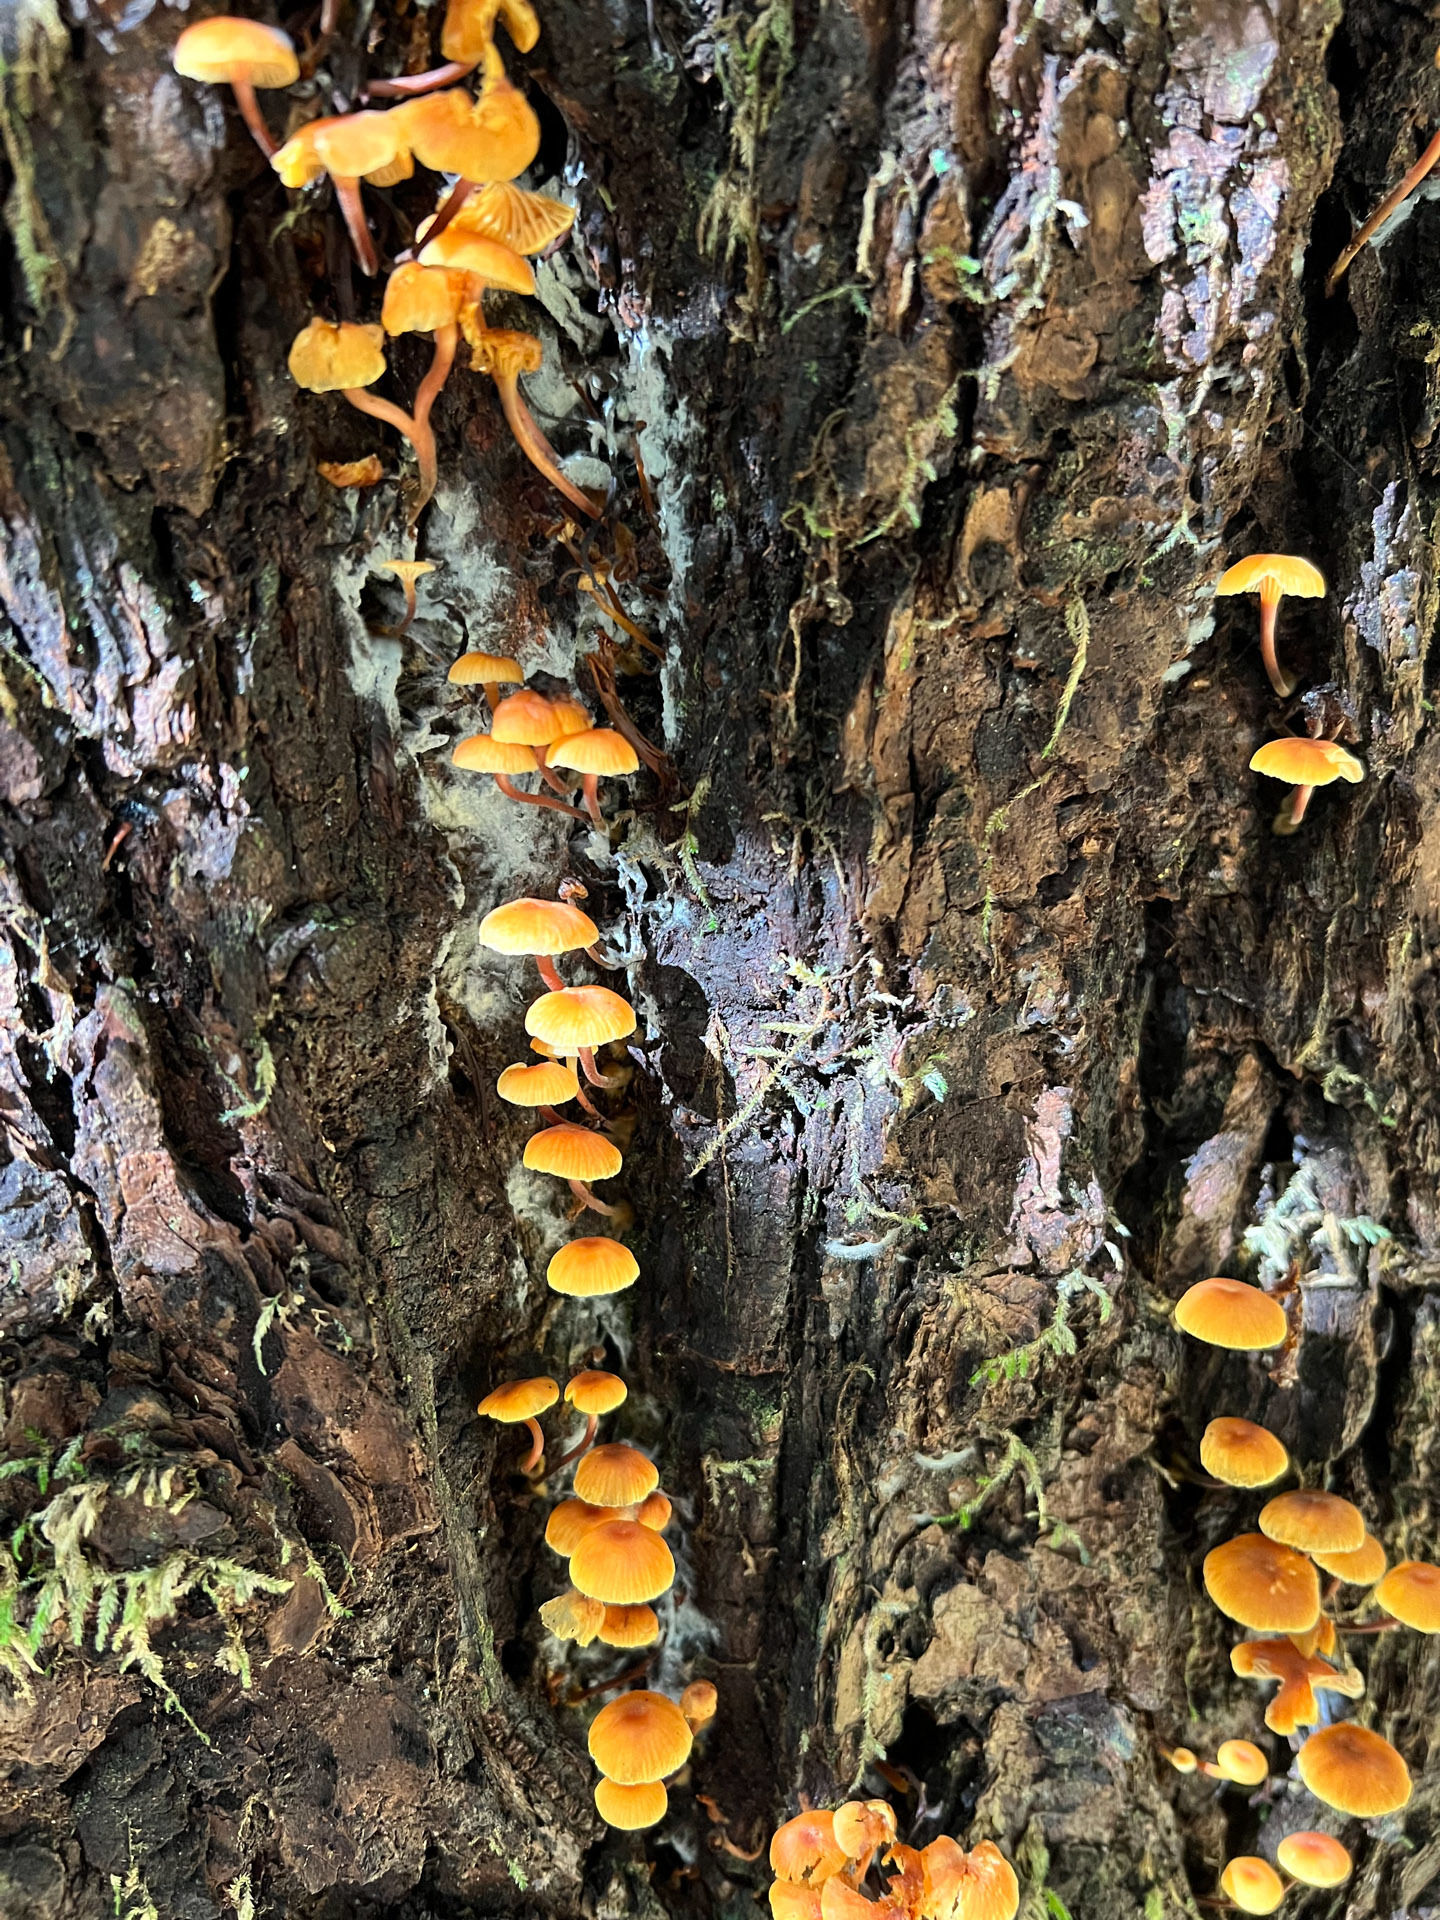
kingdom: Fungi
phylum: Basidiomycota
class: Agaricomycetes
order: Agaricales
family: Mycenaceae
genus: Xeromphalina
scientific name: Xeromphalina campanella
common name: Pinewood gingertail
